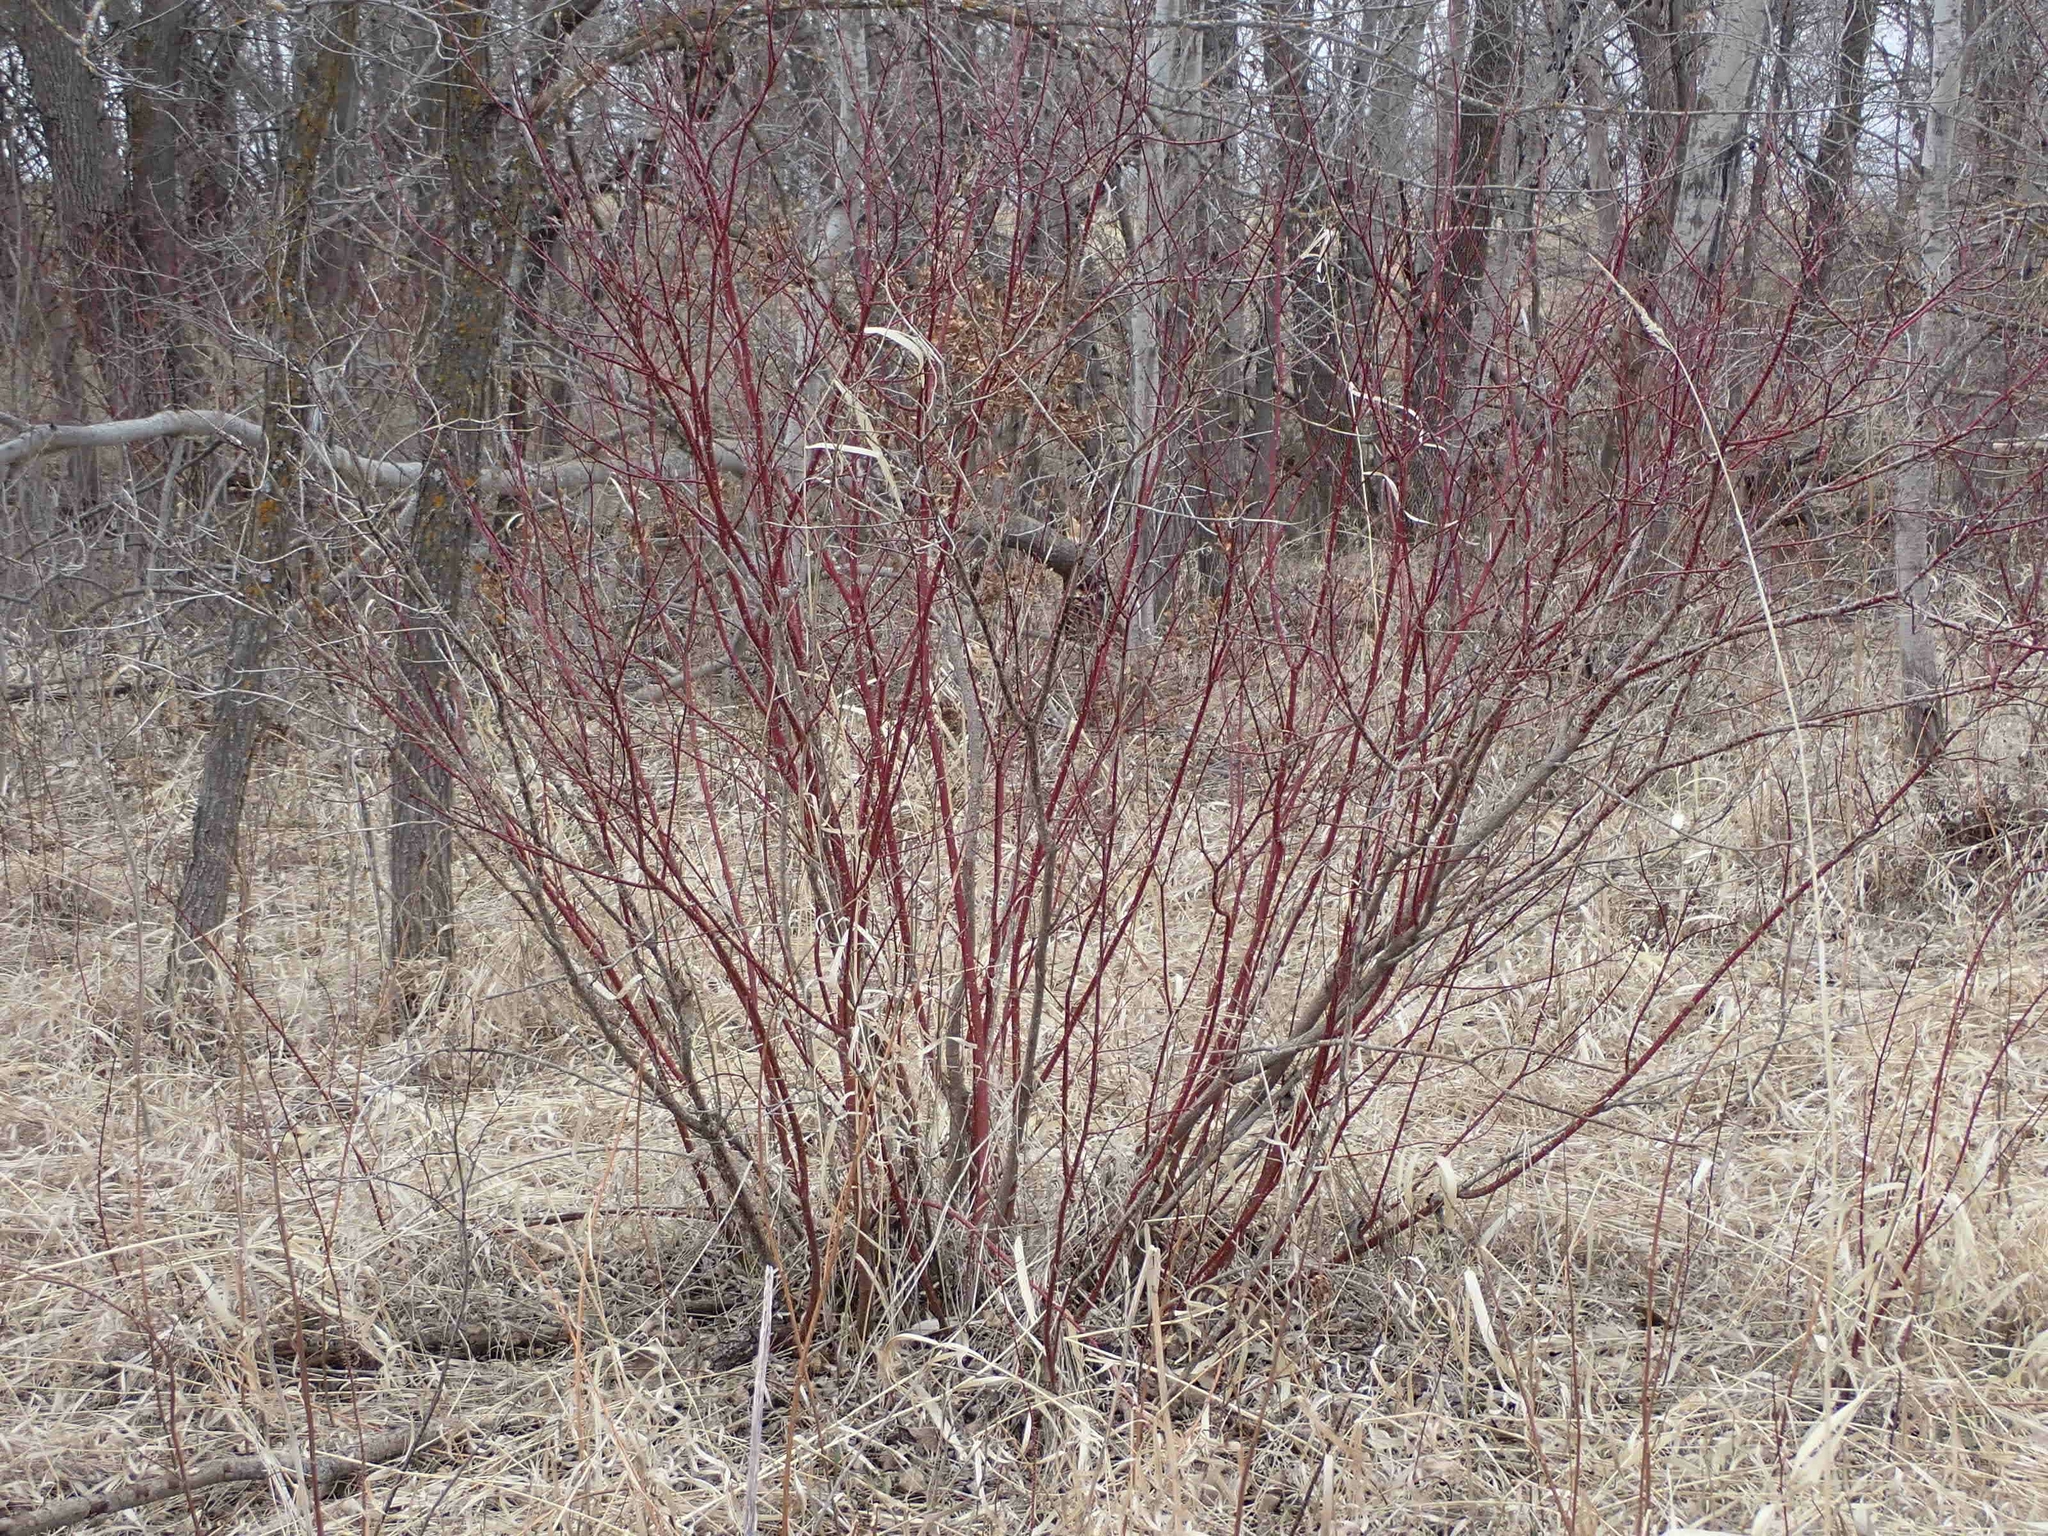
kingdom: Plantae
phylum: Tracheophyta
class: Magnoliopsida
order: Cornales
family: Cornaceae
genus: Cornus
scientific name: Cornus sericea
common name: Red-osier dogwood
